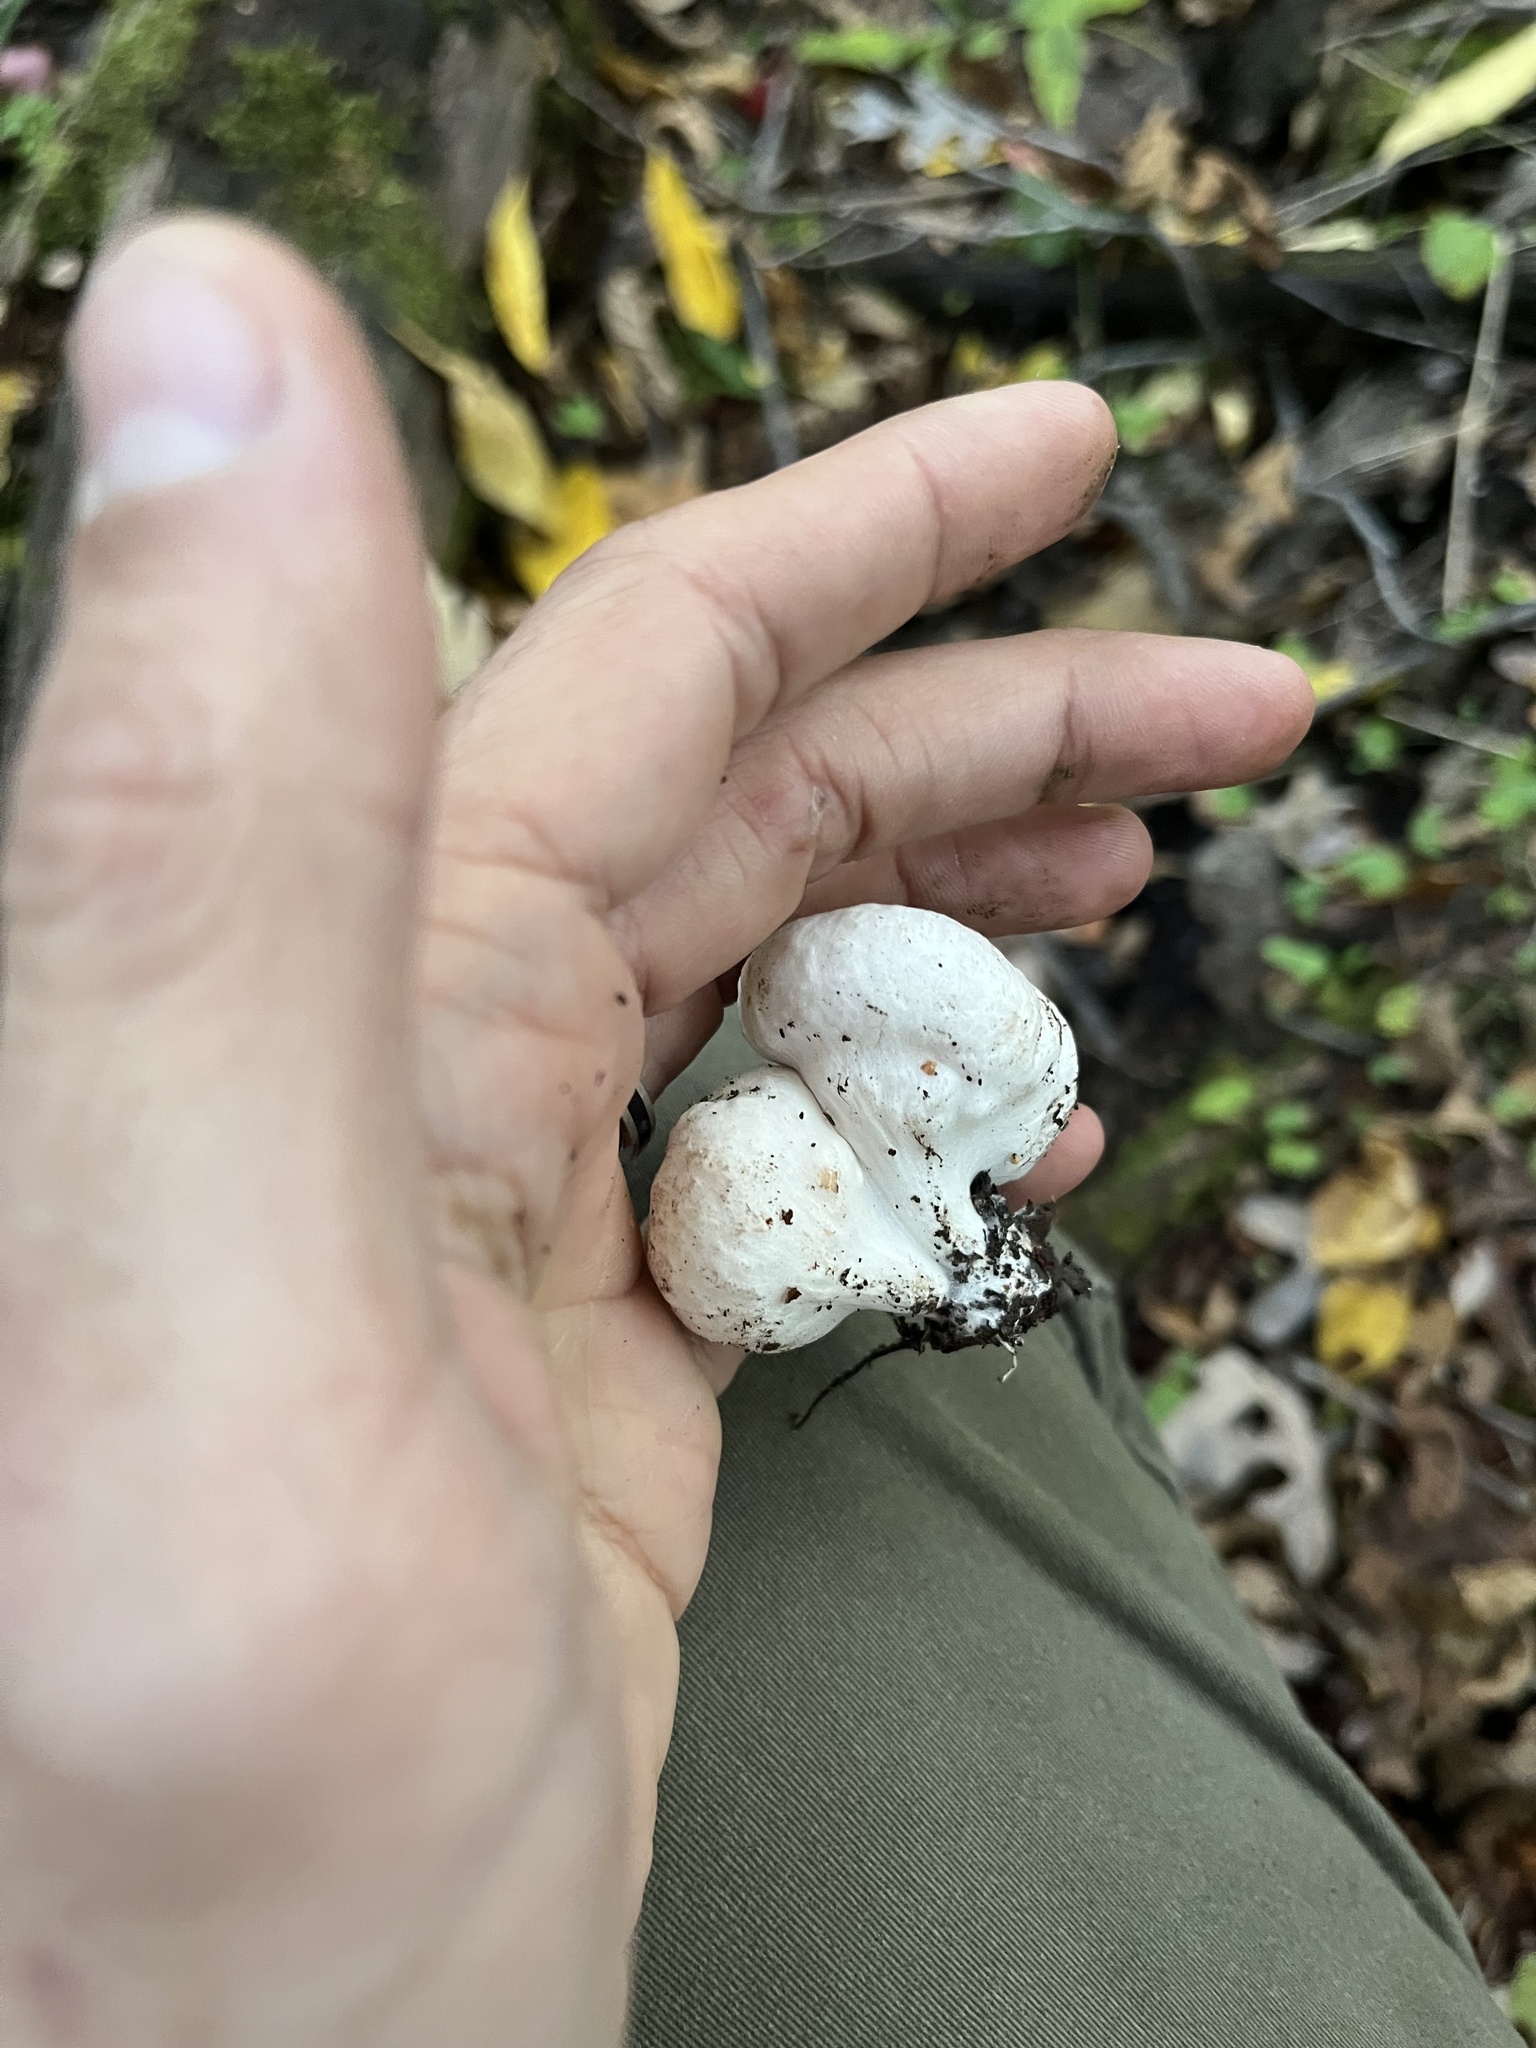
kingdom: Fungi
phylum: Basidiomycota
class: Agaricomycetes
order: Agaricales
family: Entolomataceae
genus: Entoloma
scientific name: Entoloma abortivum
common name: Aborted entoloma
